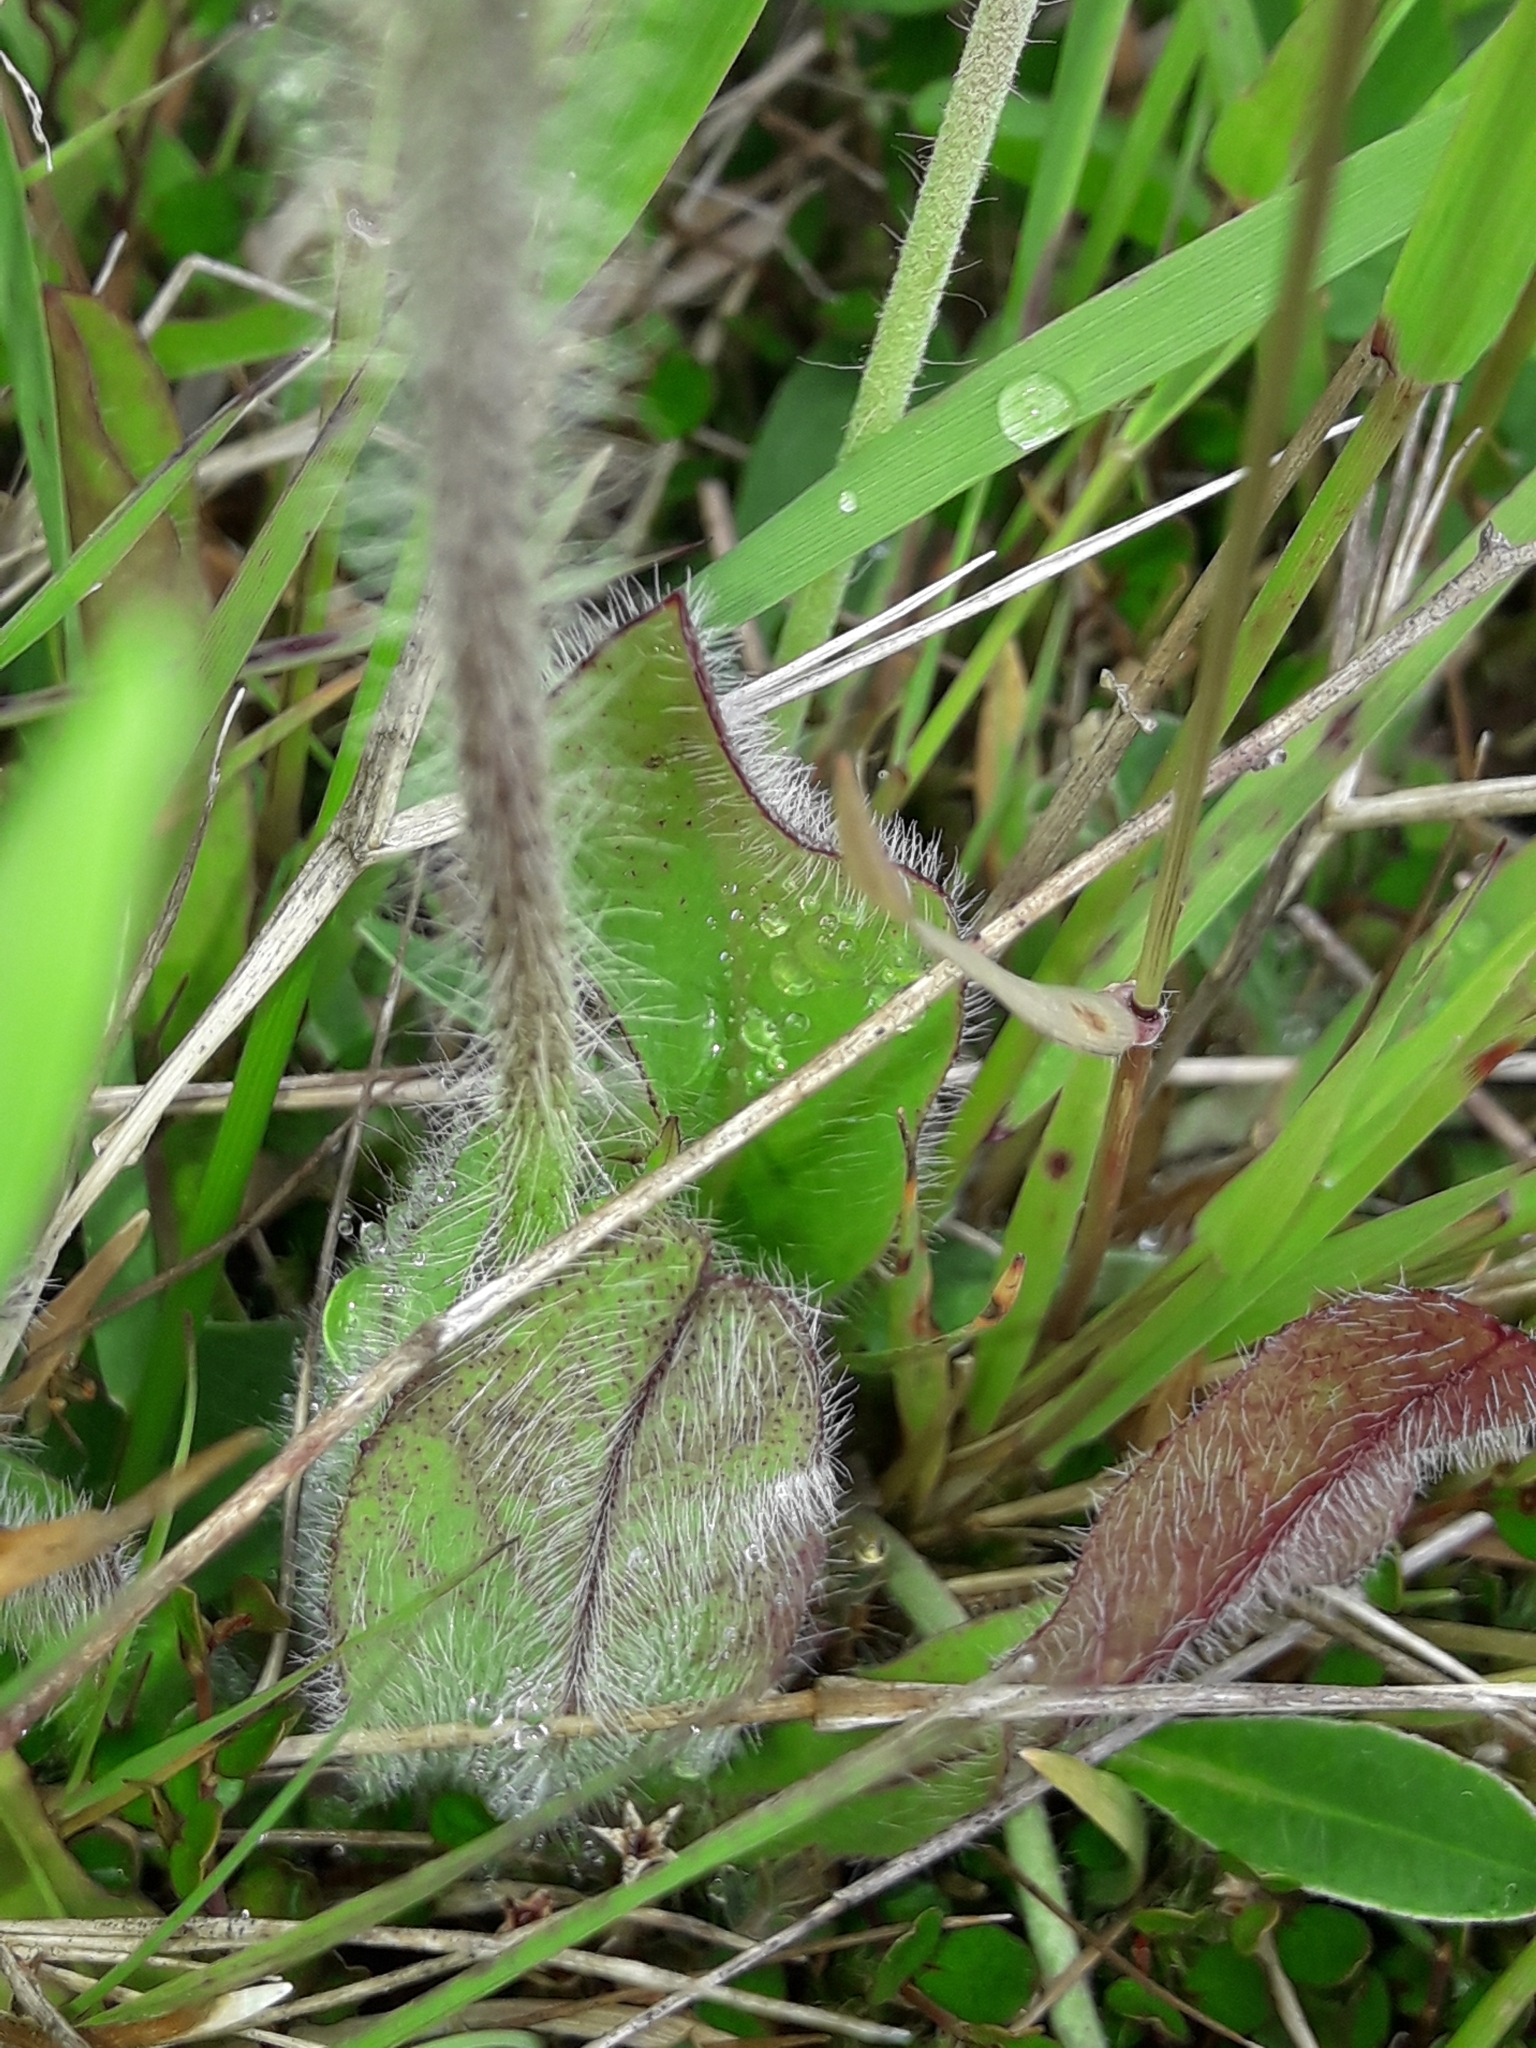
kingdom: Plantae
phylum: Tracheophyta
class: Magnoliopsida
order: Asterales
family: Asteraceae
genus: Pilosella
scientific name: Pilosella aurantiaca
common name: Fox-and-cubs
